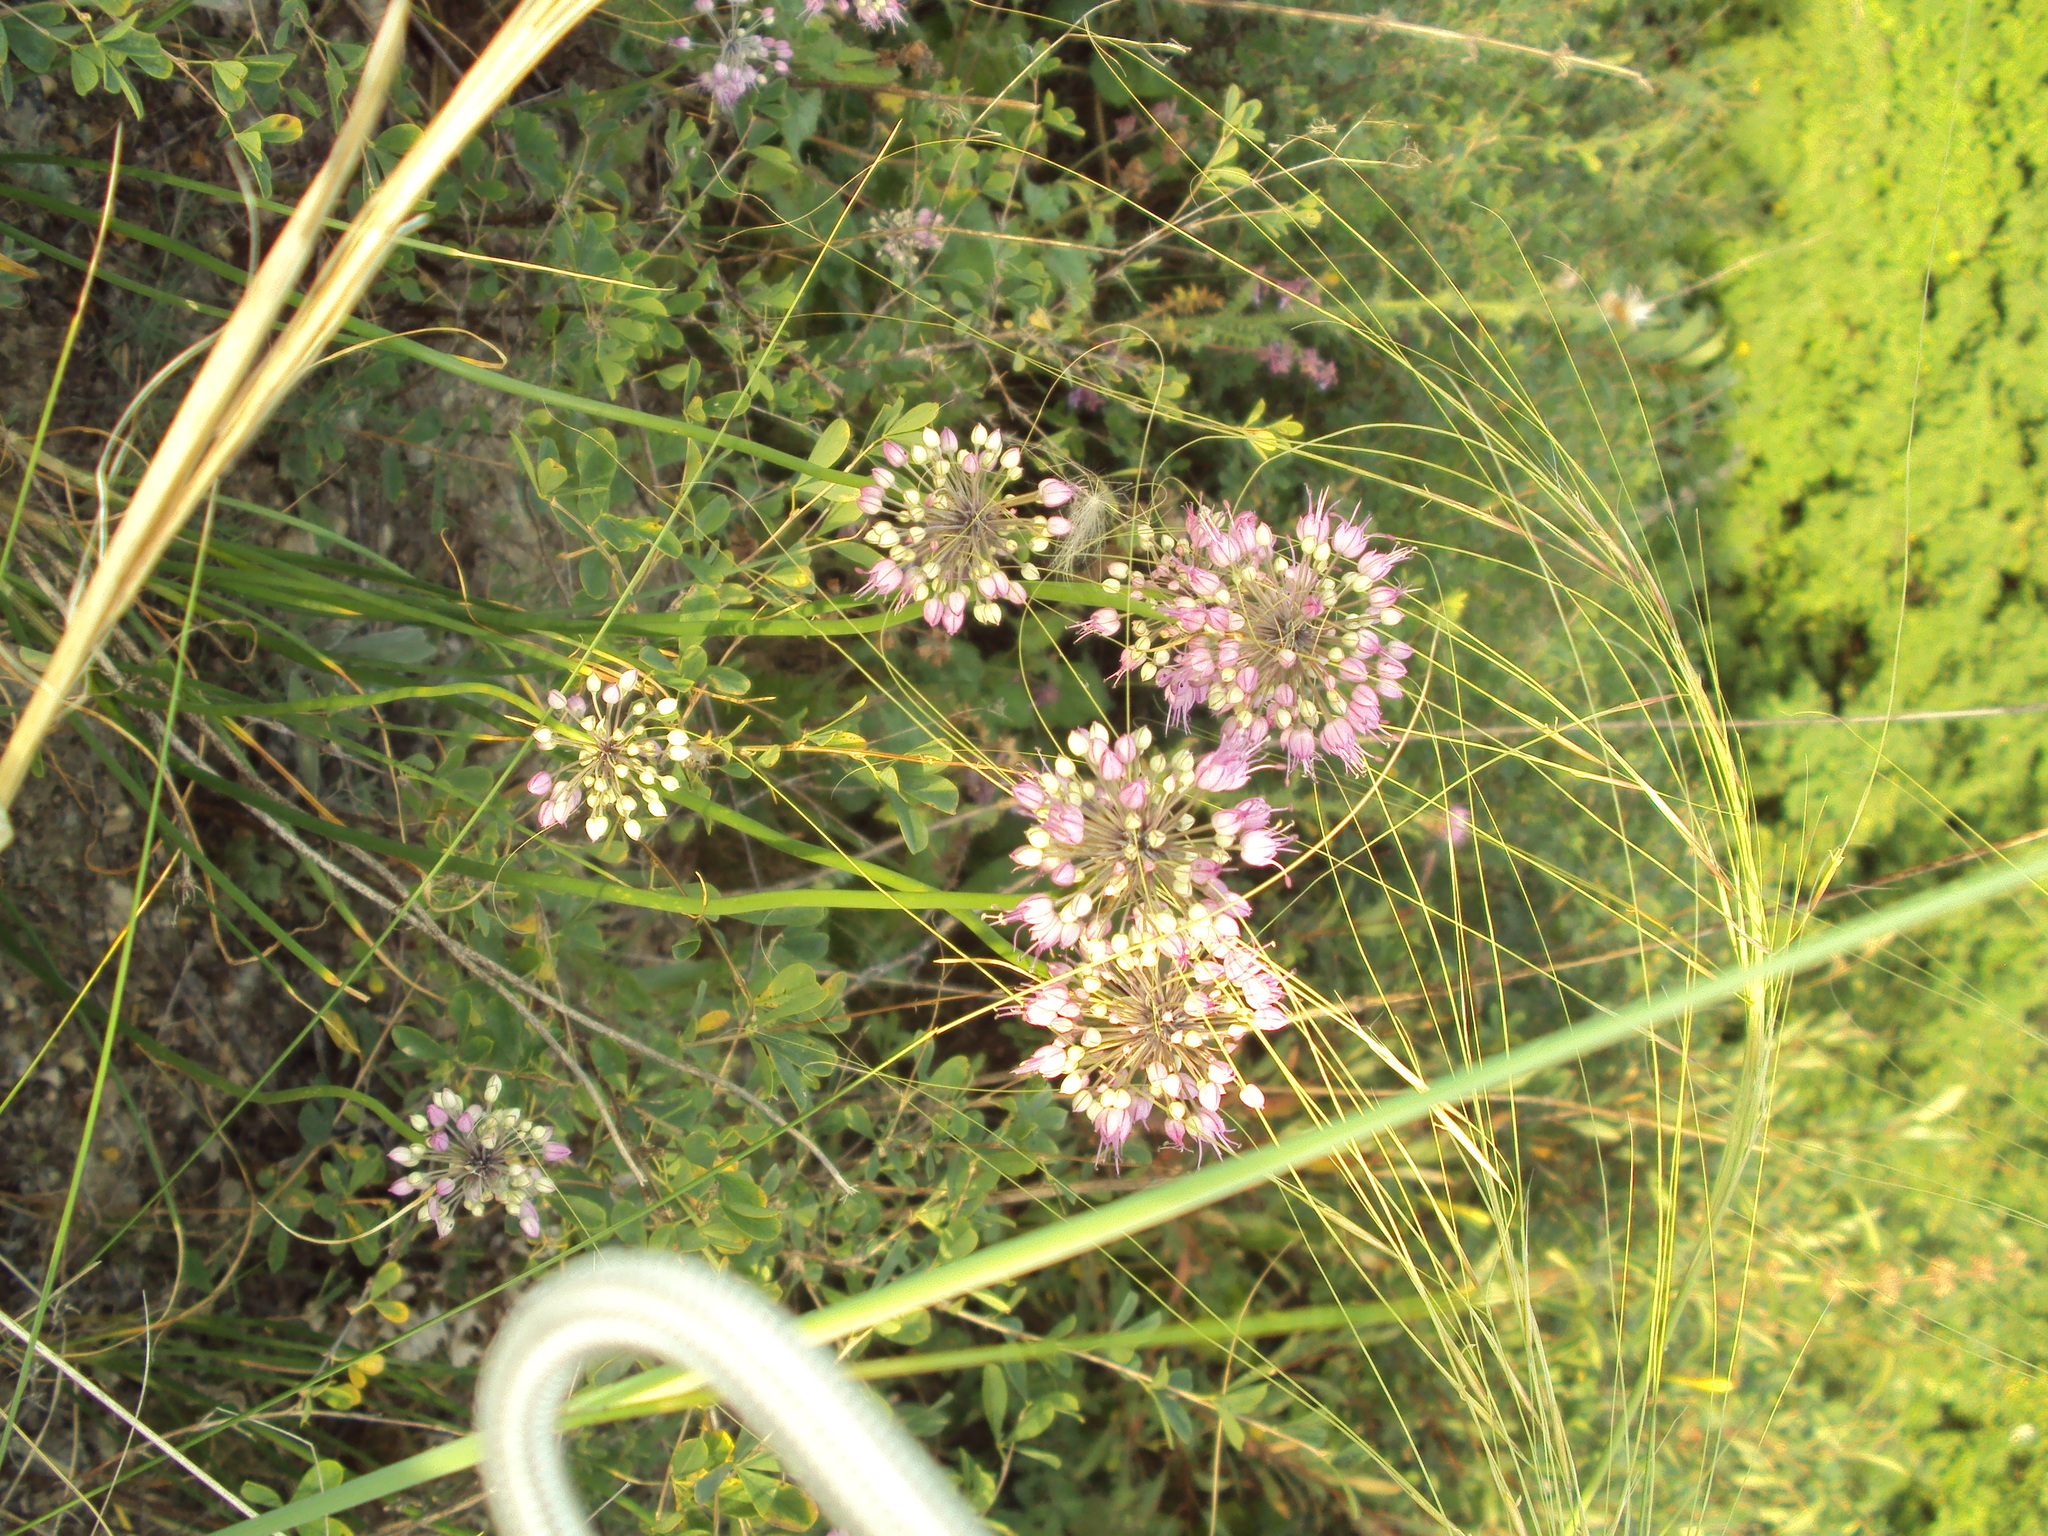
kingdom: Plantae
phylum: Tracheophyta
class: Liliopsida
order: Asparagales
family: Amaryllidaceae
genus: Allium
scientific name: Allium cretaceum
